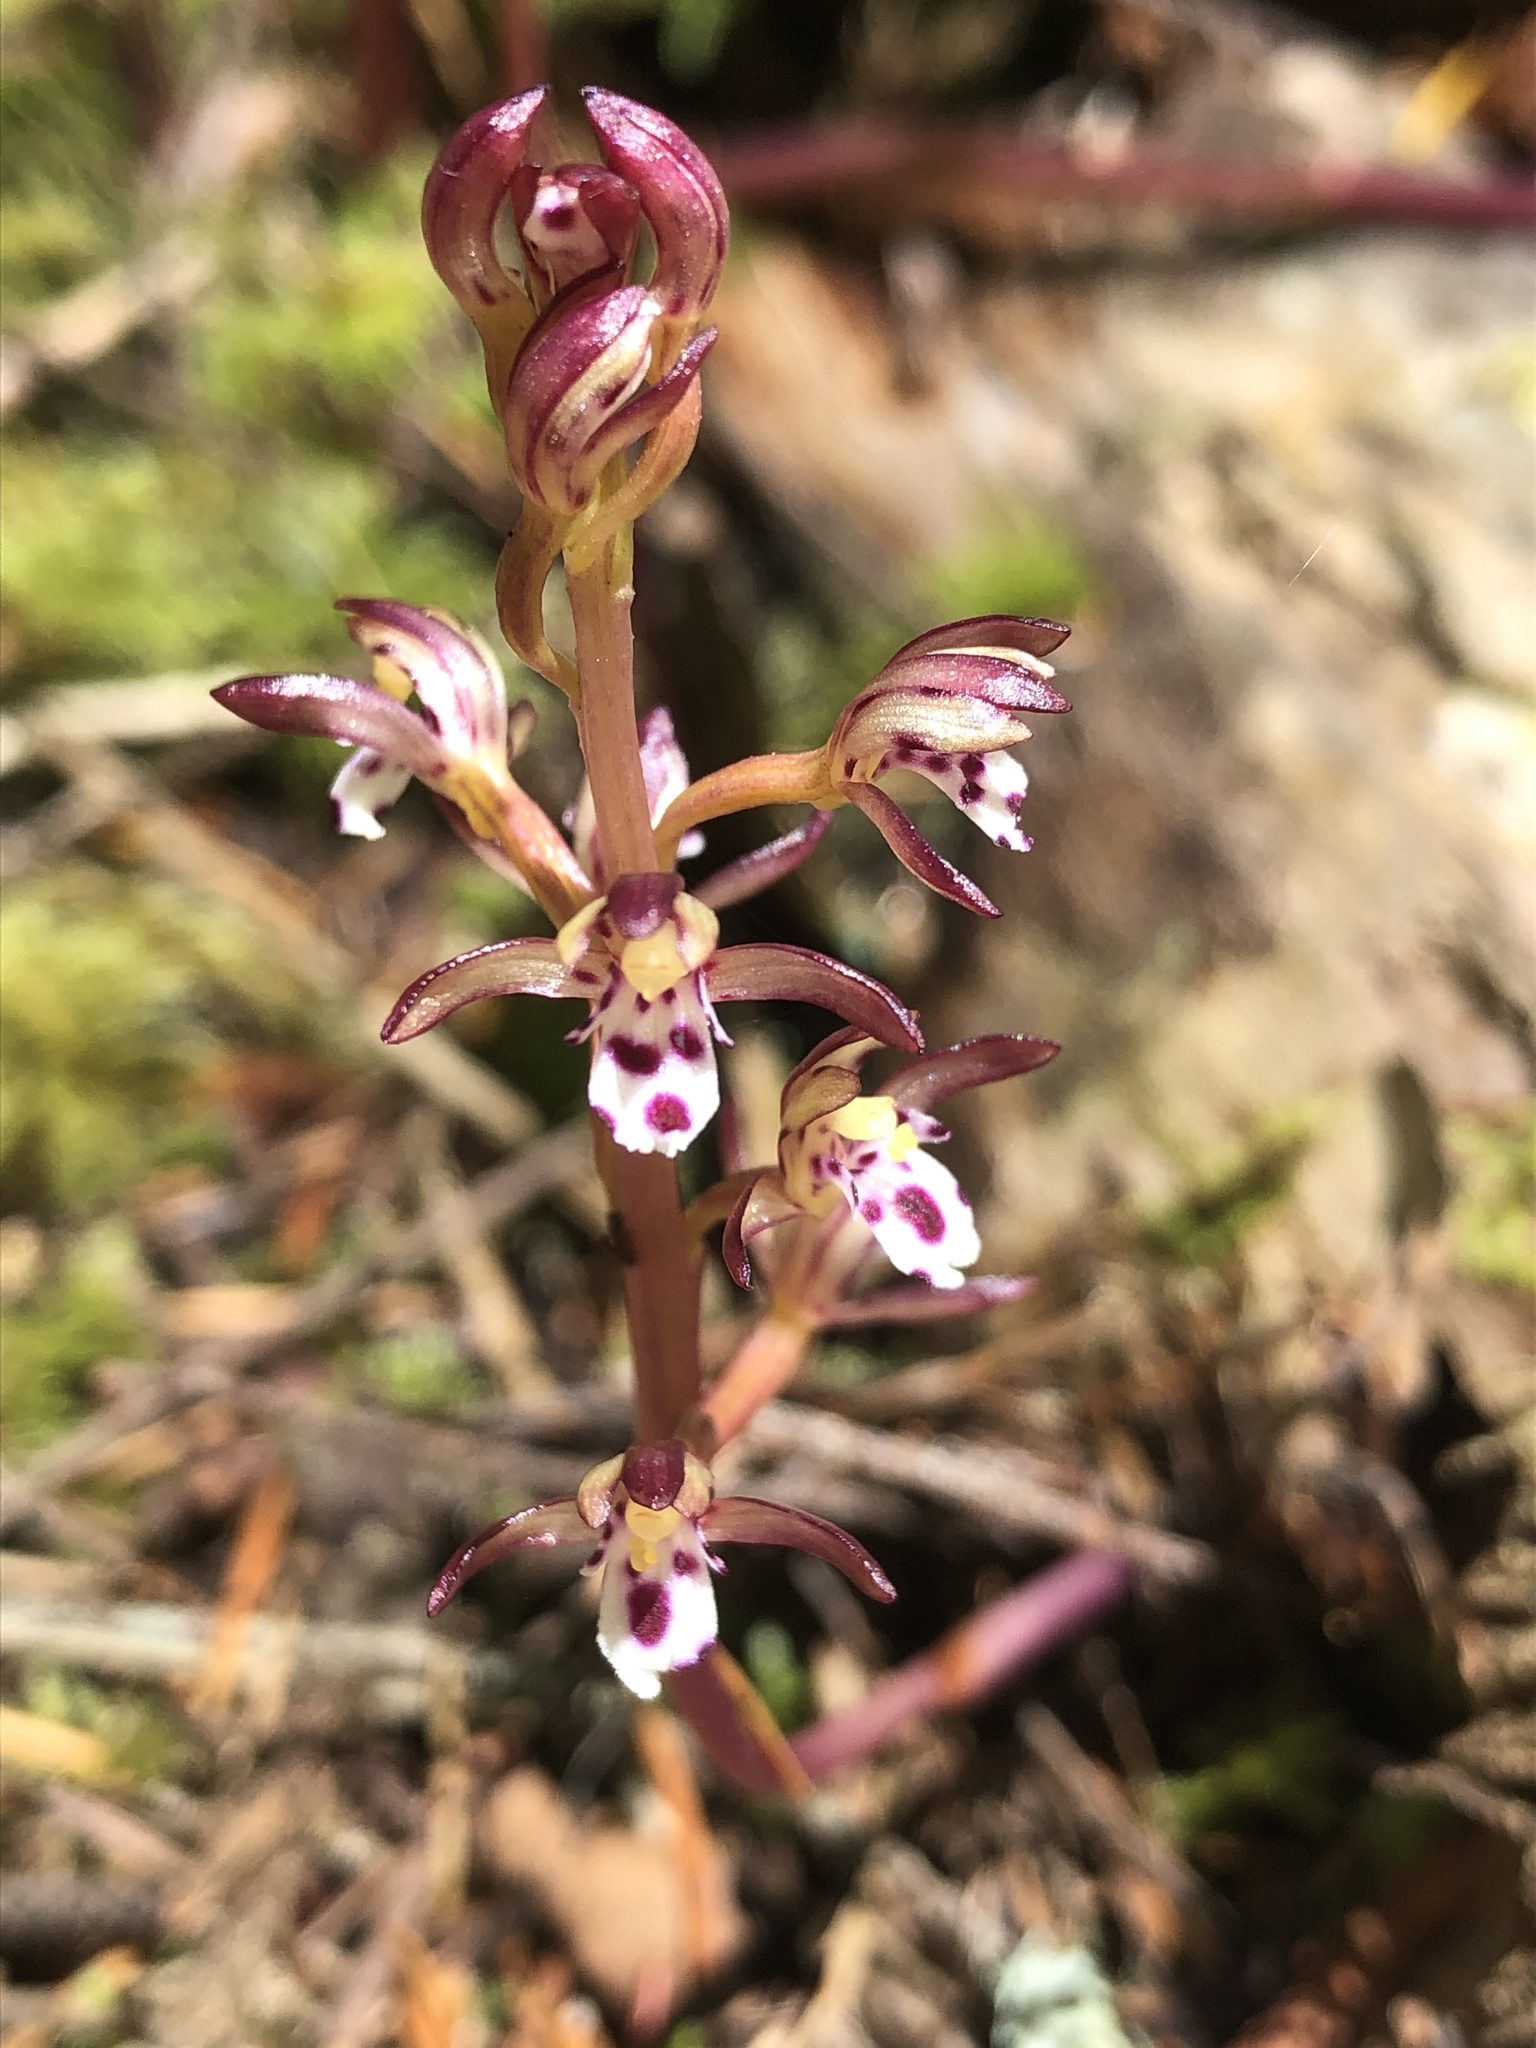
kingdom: Plantae
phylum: Tracheophyta
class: Liliopsida
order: Asparagales
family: Orchidaceae
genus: Corallorhiza
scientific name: Corallorhiza maculata
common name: Spotted coralroot
